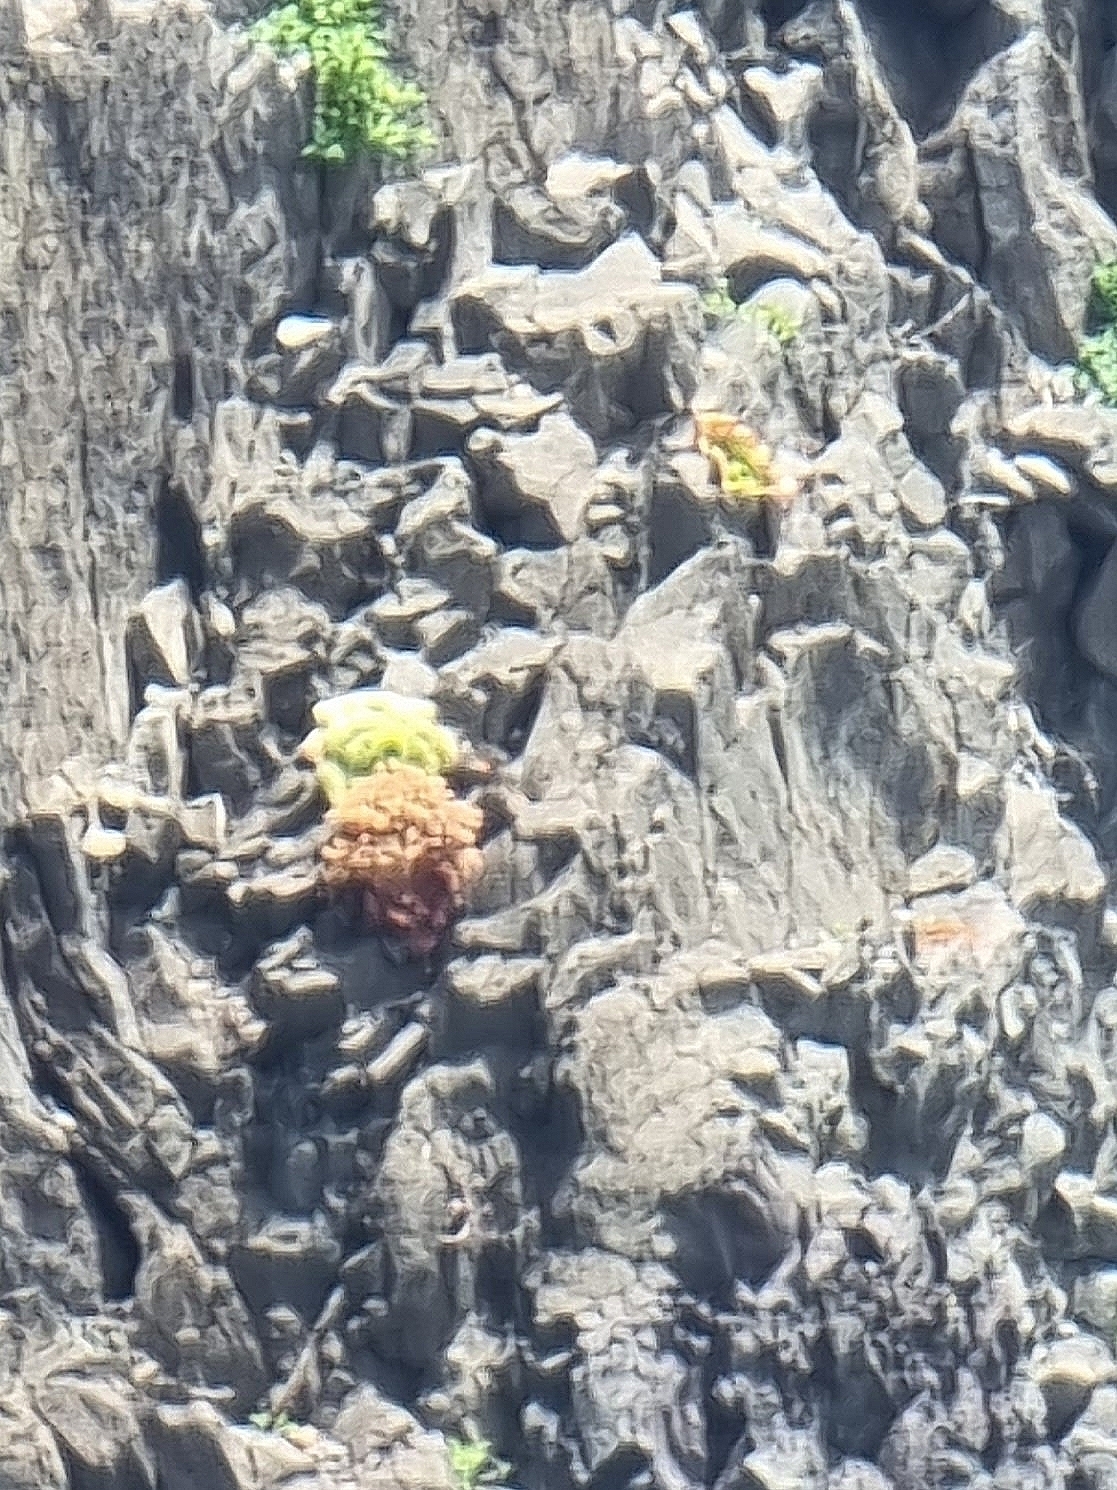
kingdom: Plantae
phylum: Tracheophyta
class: Magnoliopsida
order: Saxifragales
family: Crassulaceae
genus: Aeonium
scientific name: Aeonium glandulosum
